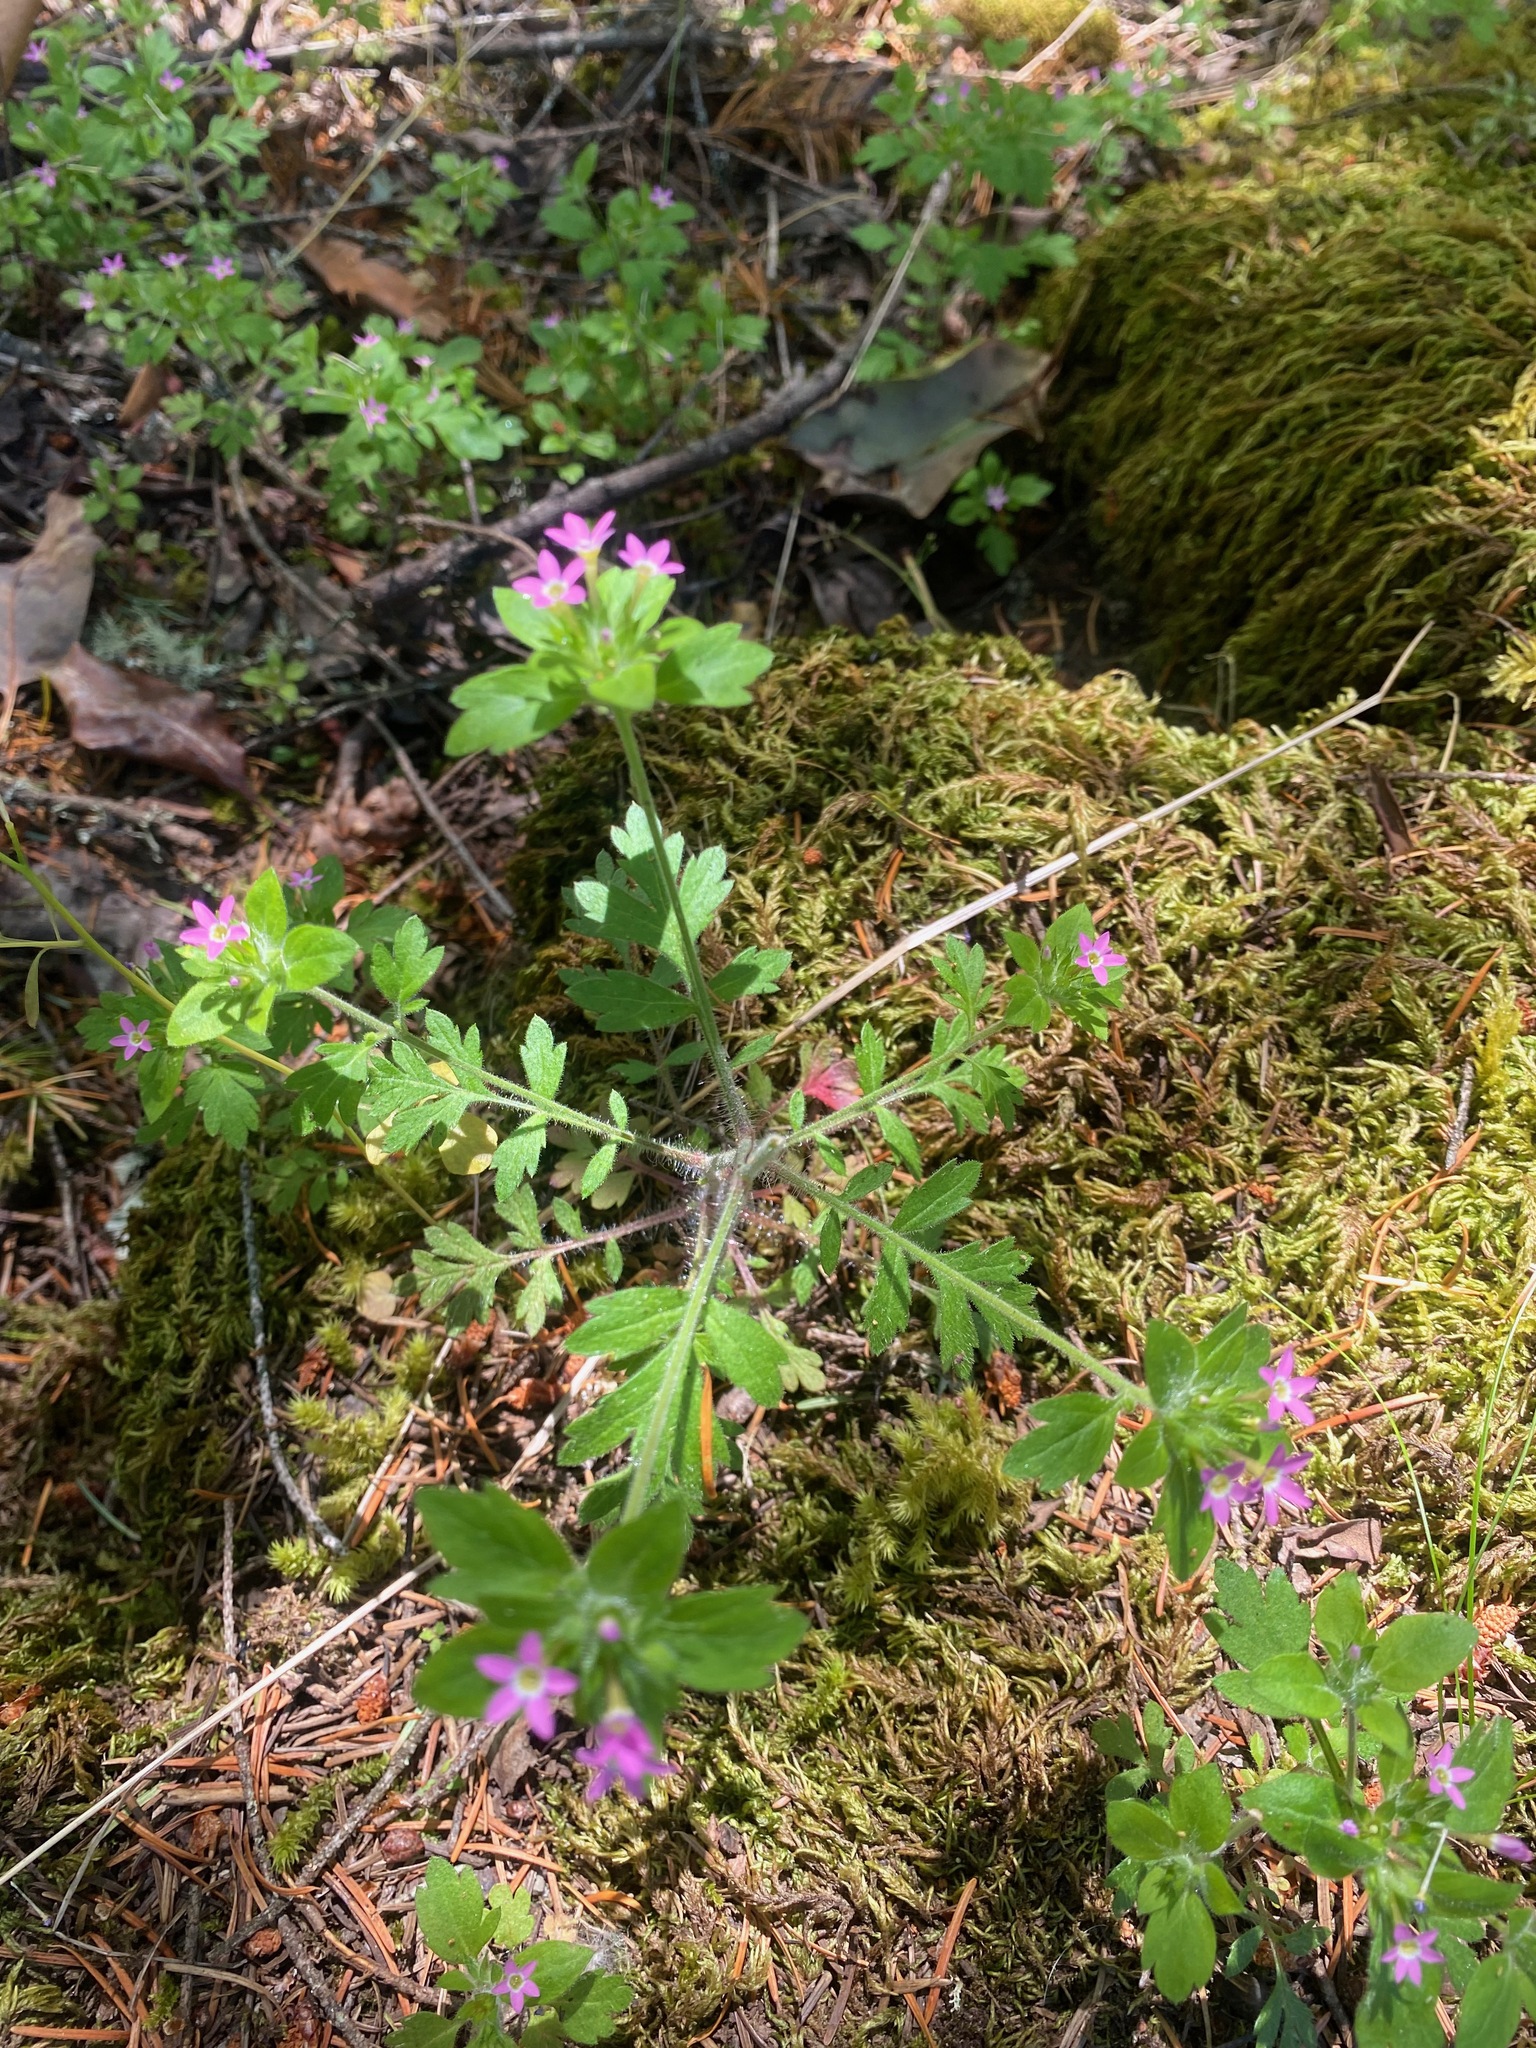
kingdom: Plantae
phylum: Tracheophyta
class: Magnoliopsida
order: Ericales
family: Polemoniaceae
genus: Collomia
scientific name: Collomia heterophylla
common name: Variable-leaved collomia
